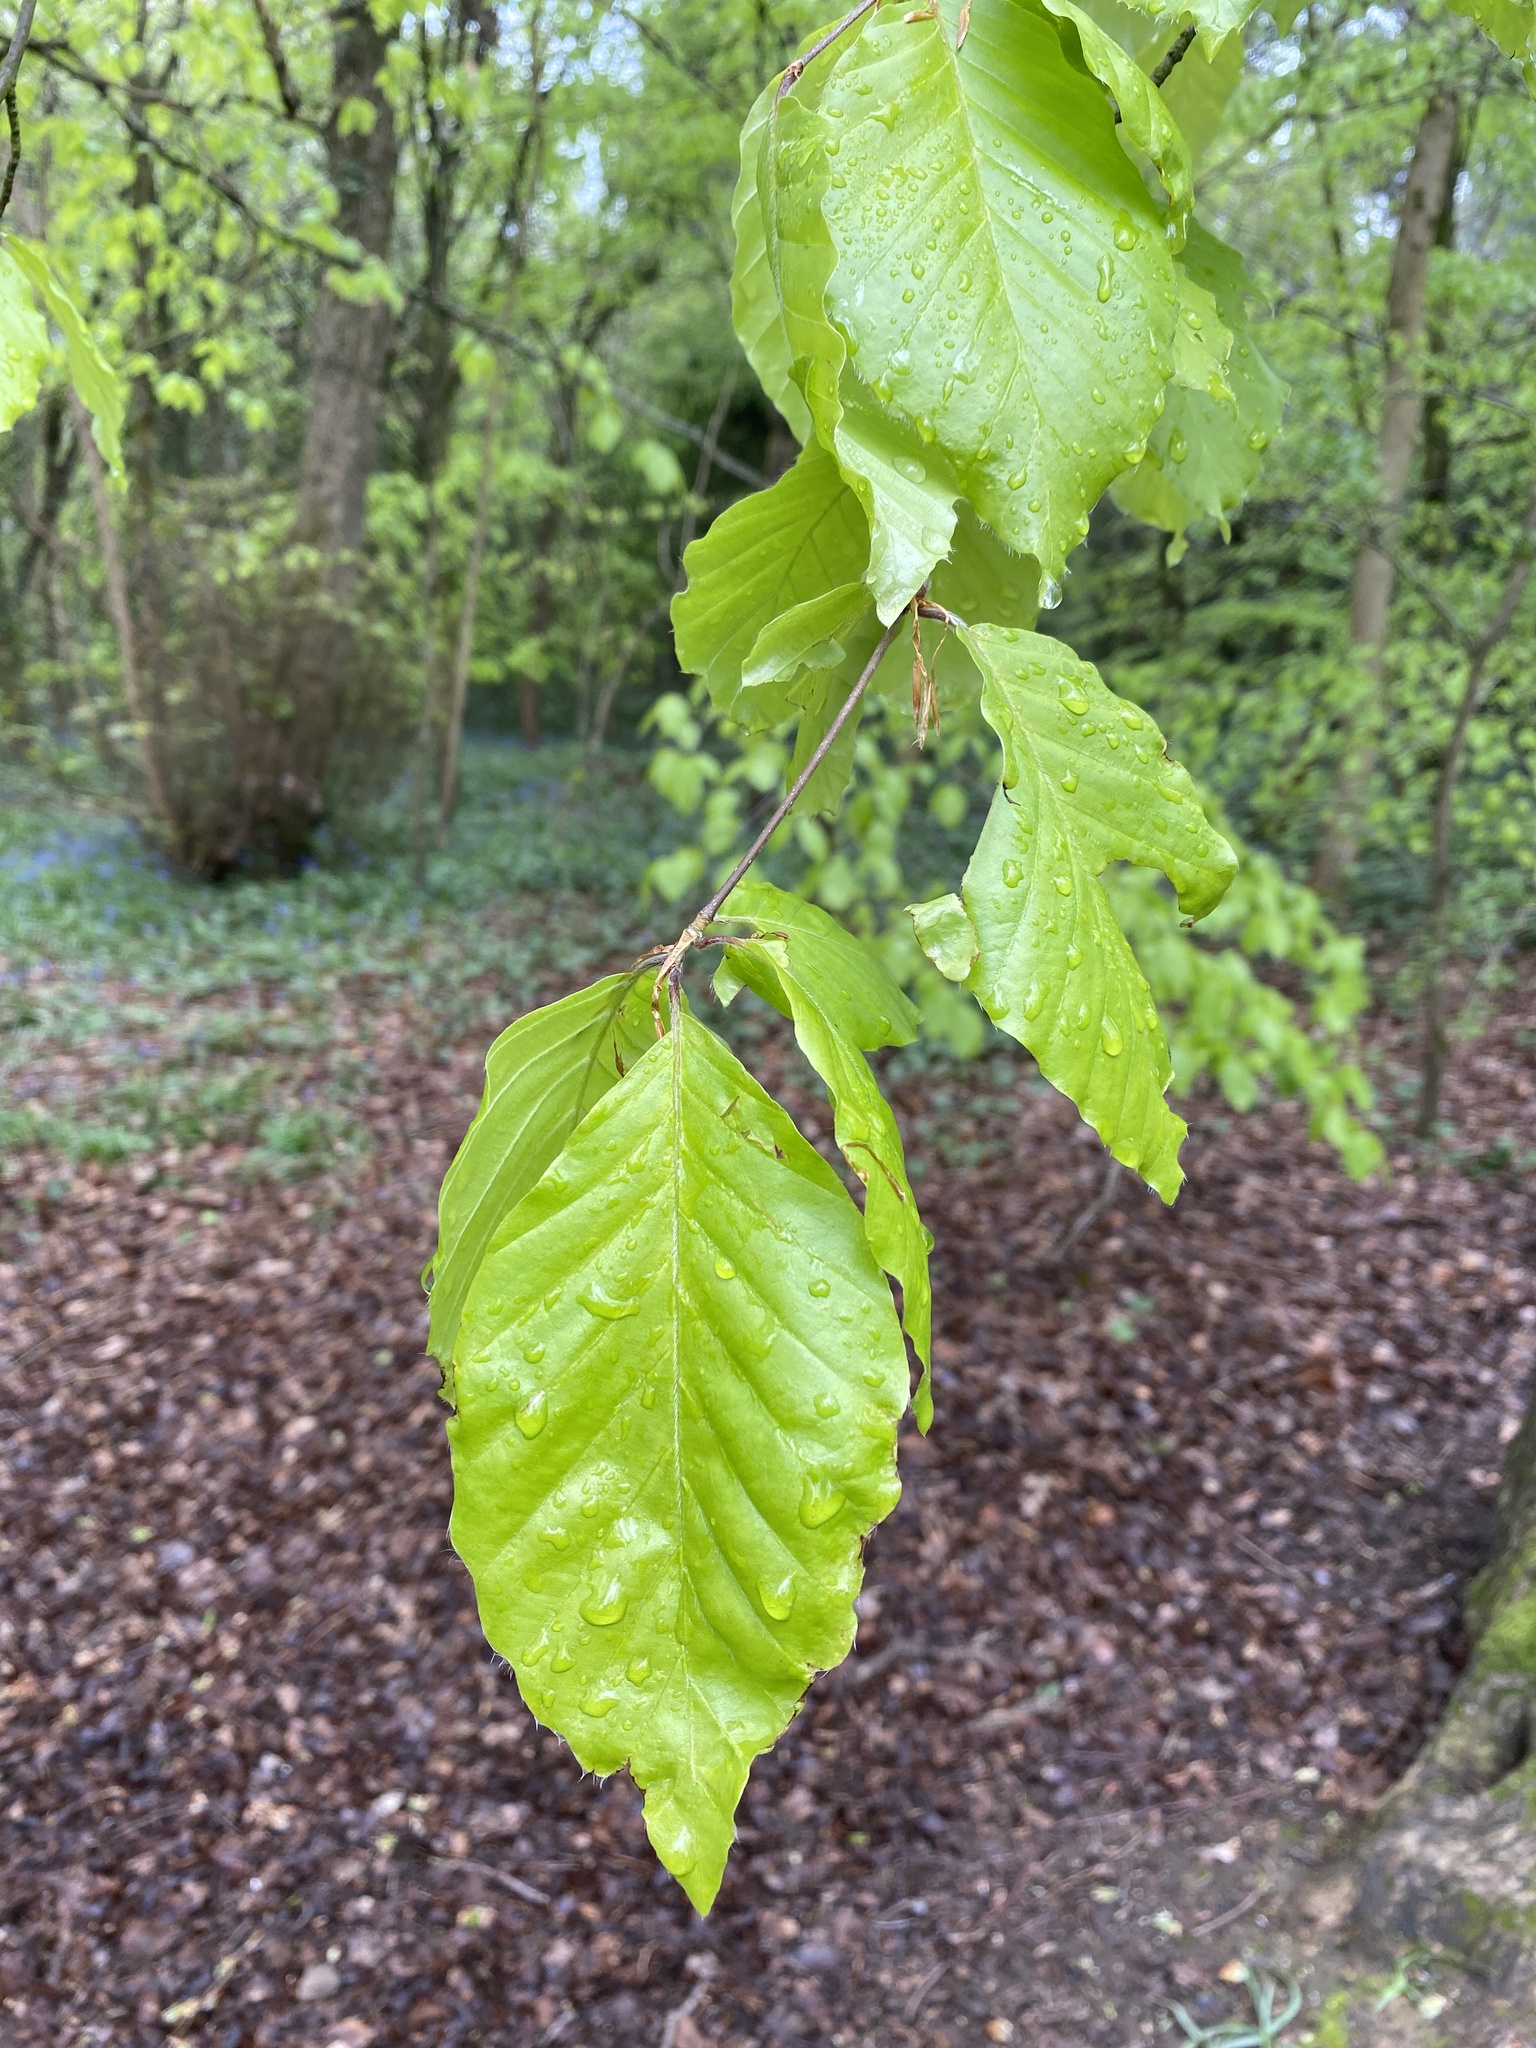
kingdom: Plantae
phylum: Tracheophyta
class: Magnoliopsida
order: Fagales
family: Fagaceae
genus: Fagus
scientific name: Fagus sylvatica
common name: Beech
